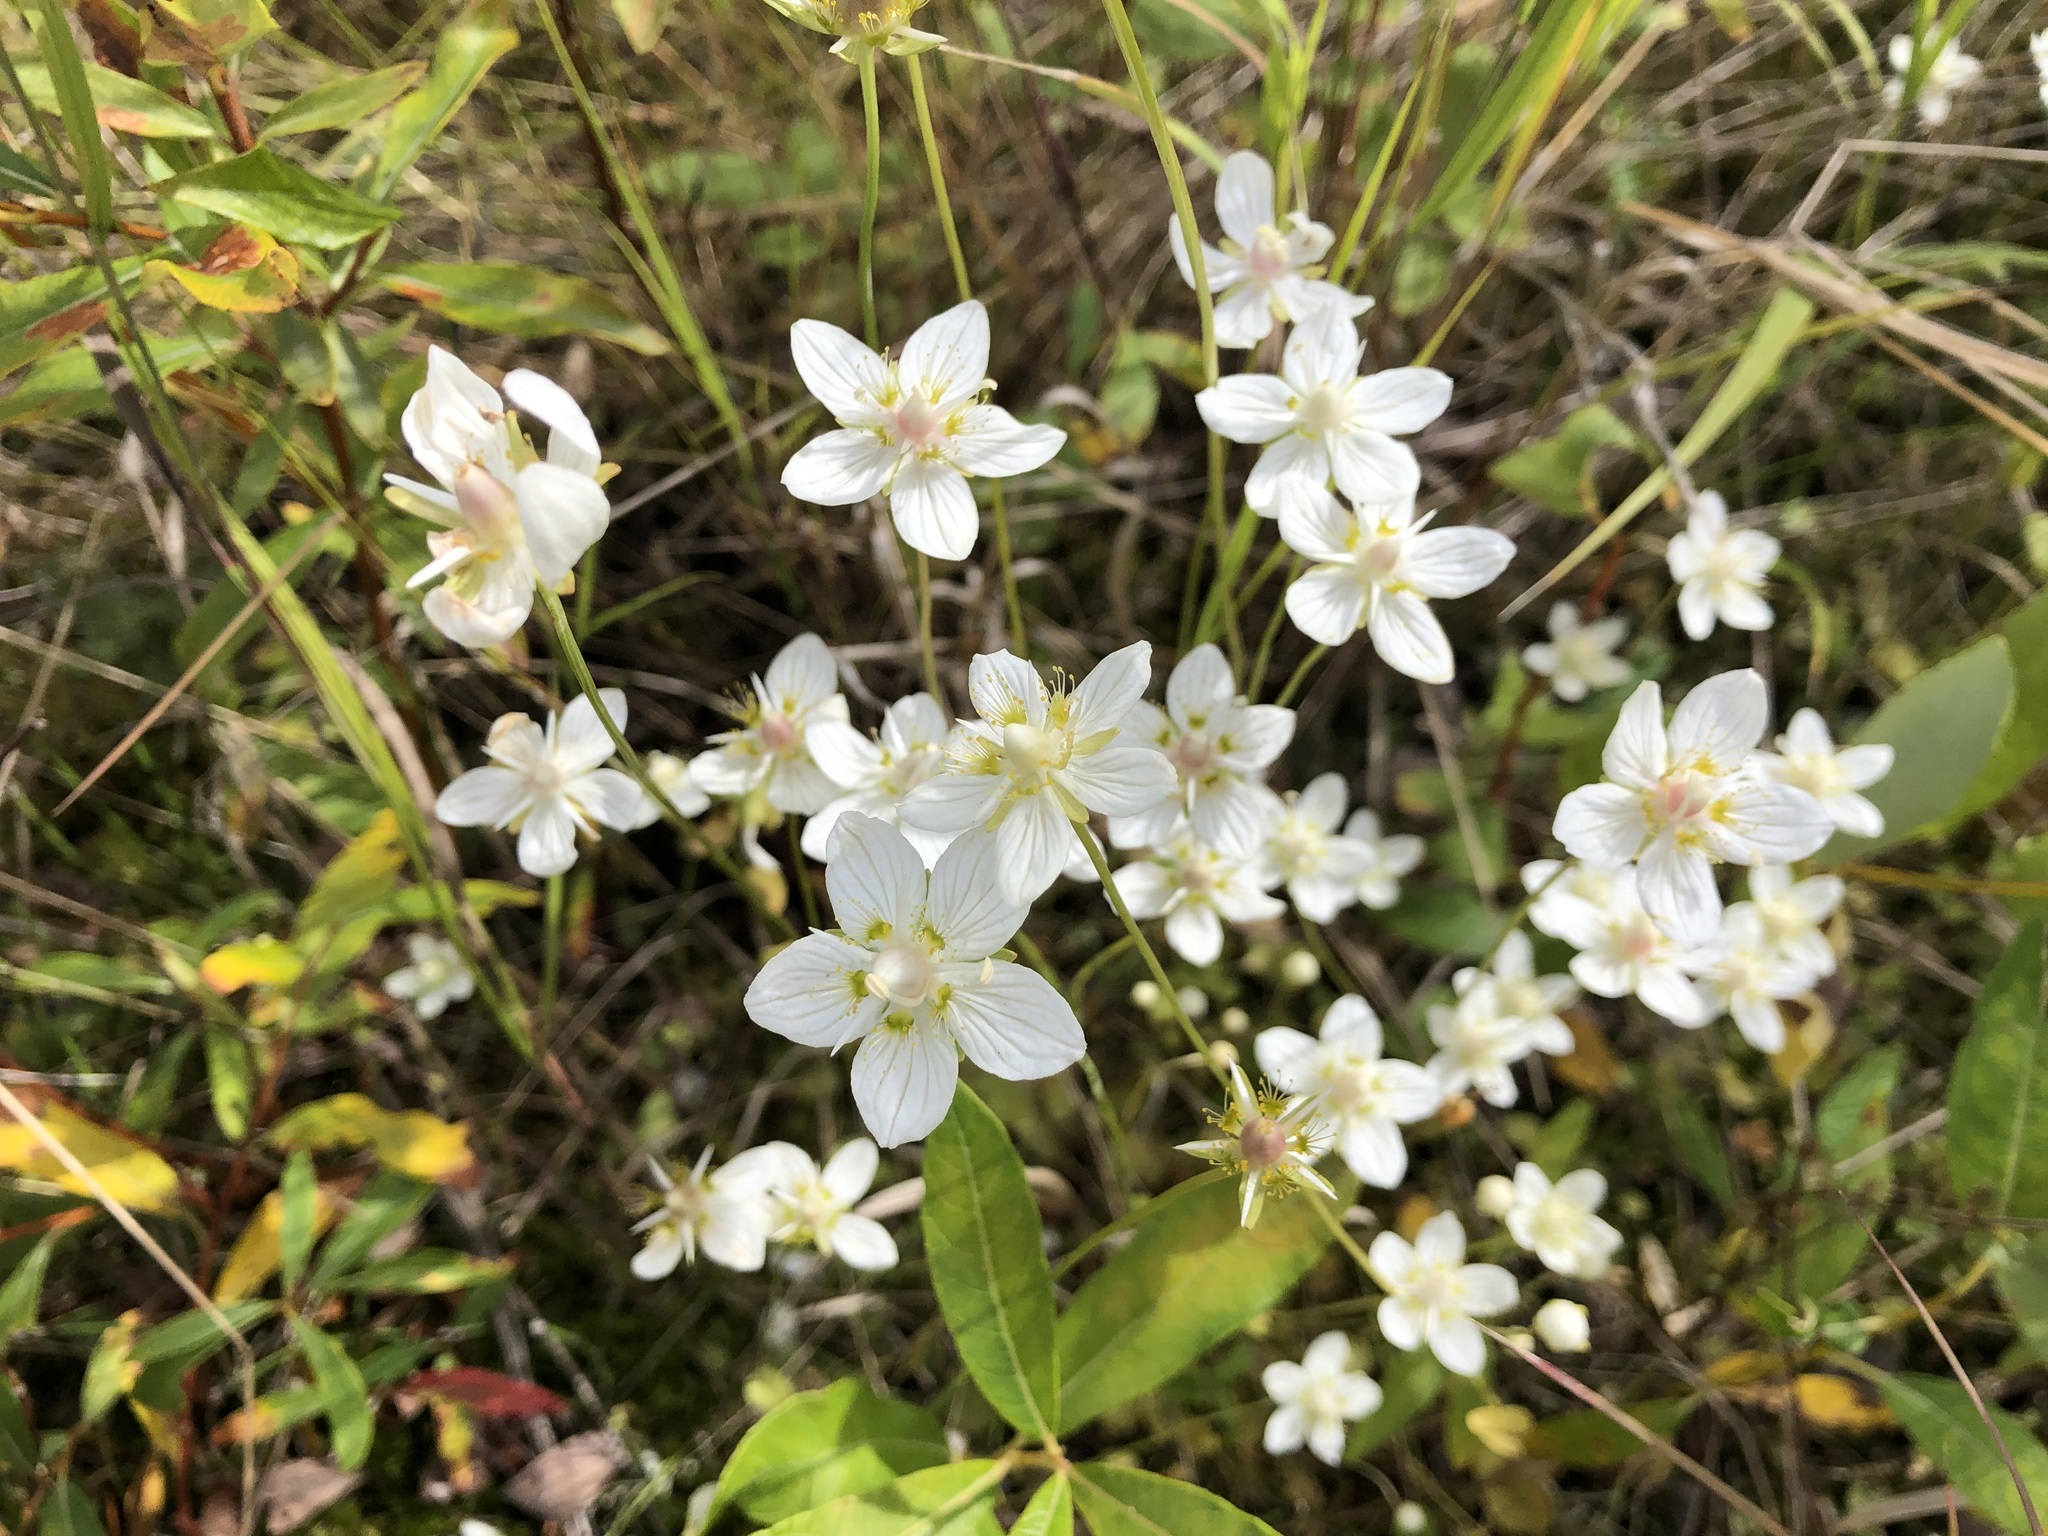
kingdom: Plantae
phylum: Tracheophyta
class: Magnoliopsida
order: Celastrales
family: Parnassiaceae
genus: Parnassia
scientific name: Parnassia palustris
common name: Grass-of-parnassus
